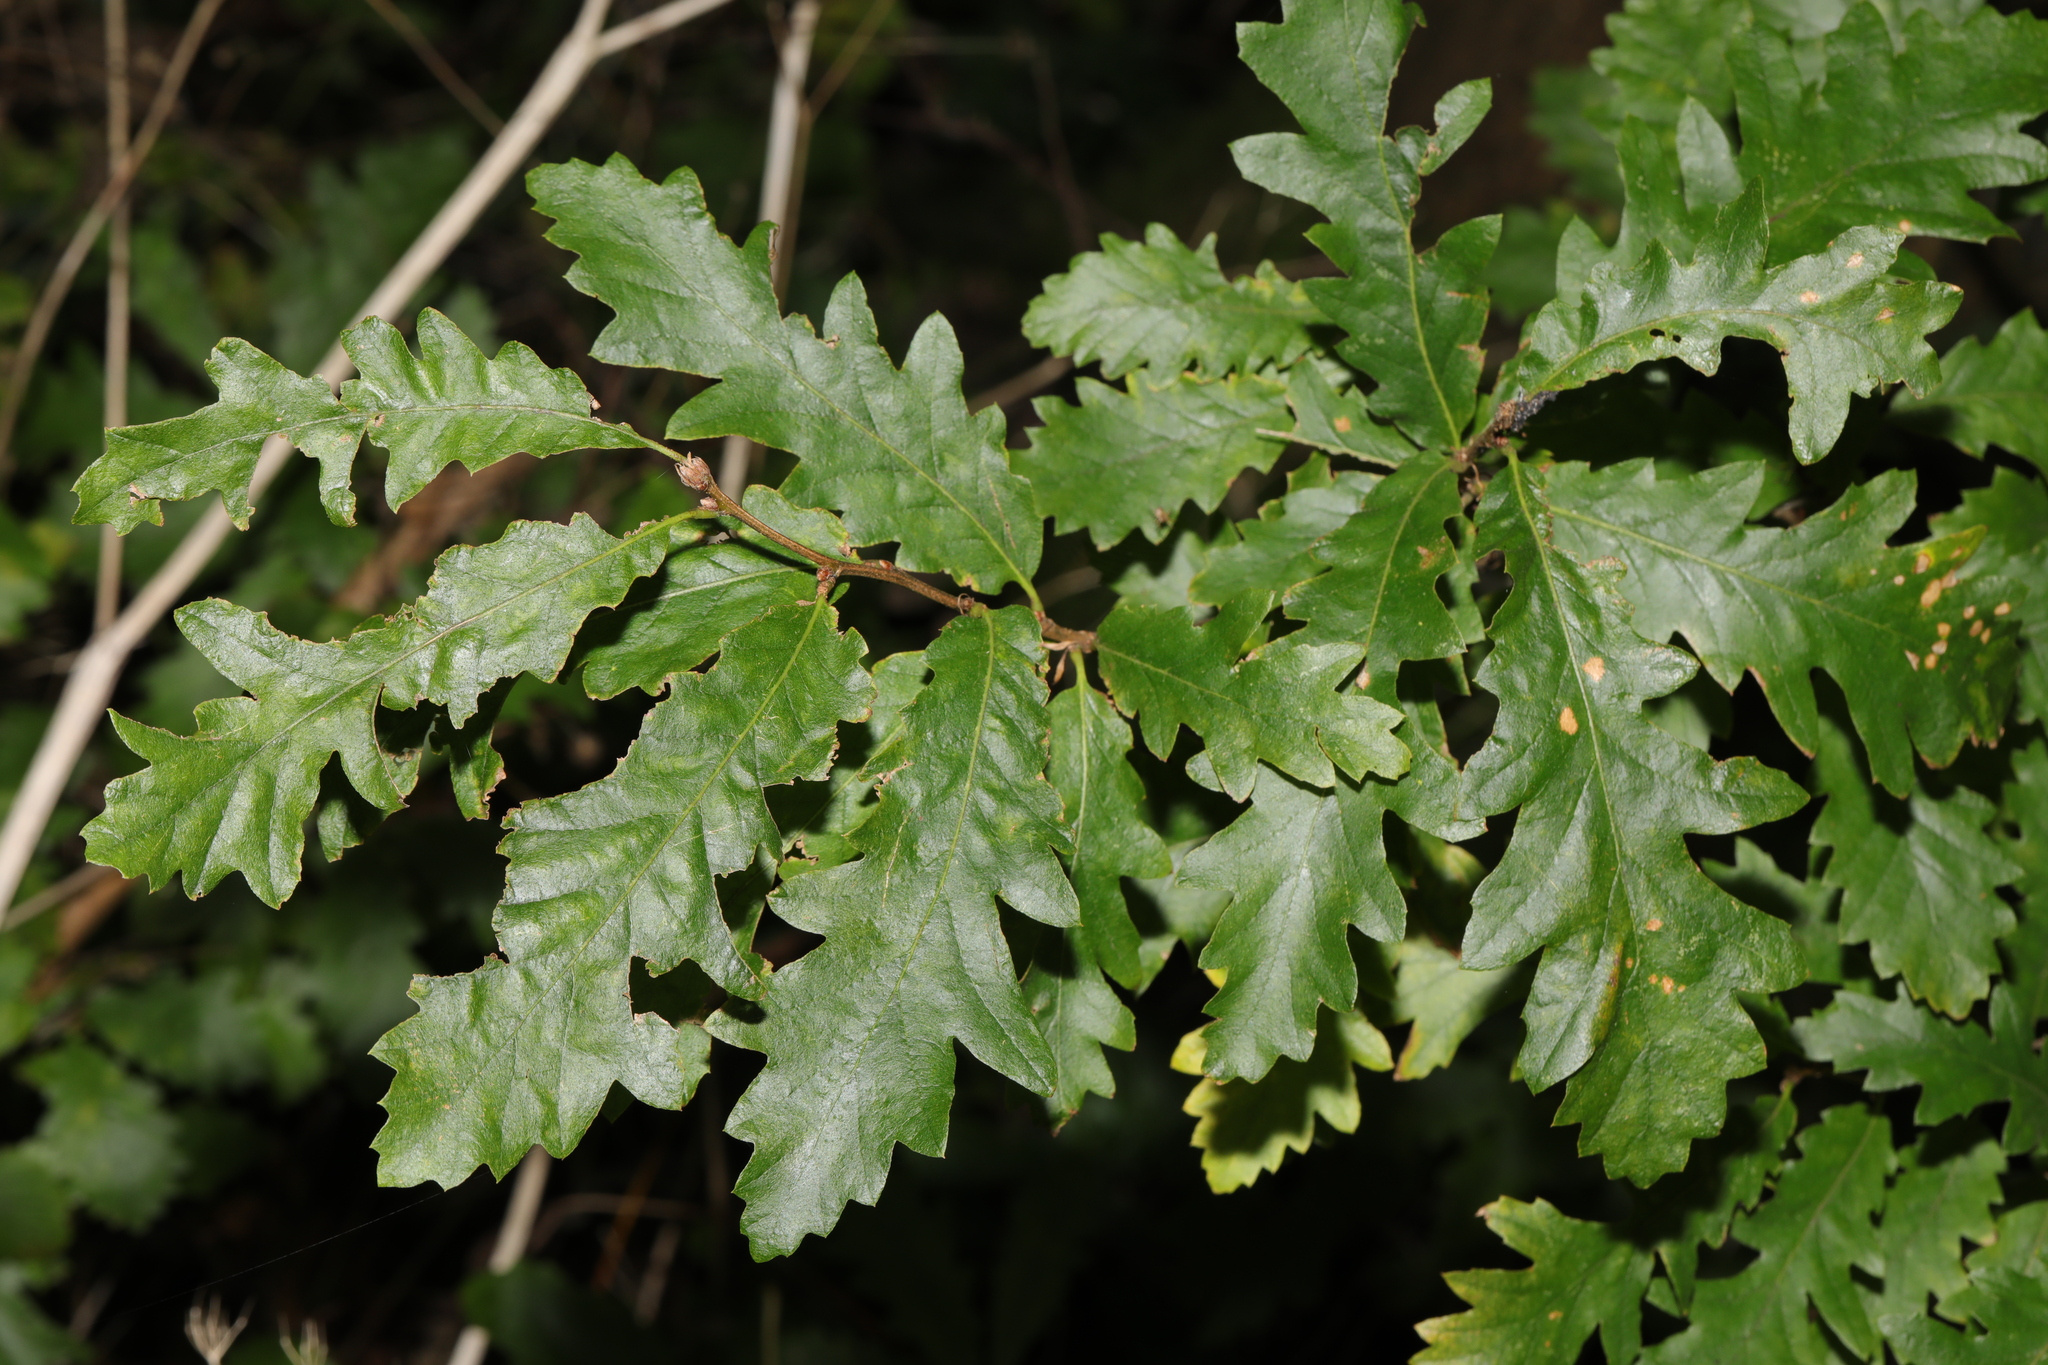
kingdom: Plantae
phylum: Tracheophyta
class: Magnoliopsida
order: Fagales
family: Fagaceae
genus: Quercus
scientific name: Quercus cerris
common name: Turkey oak
